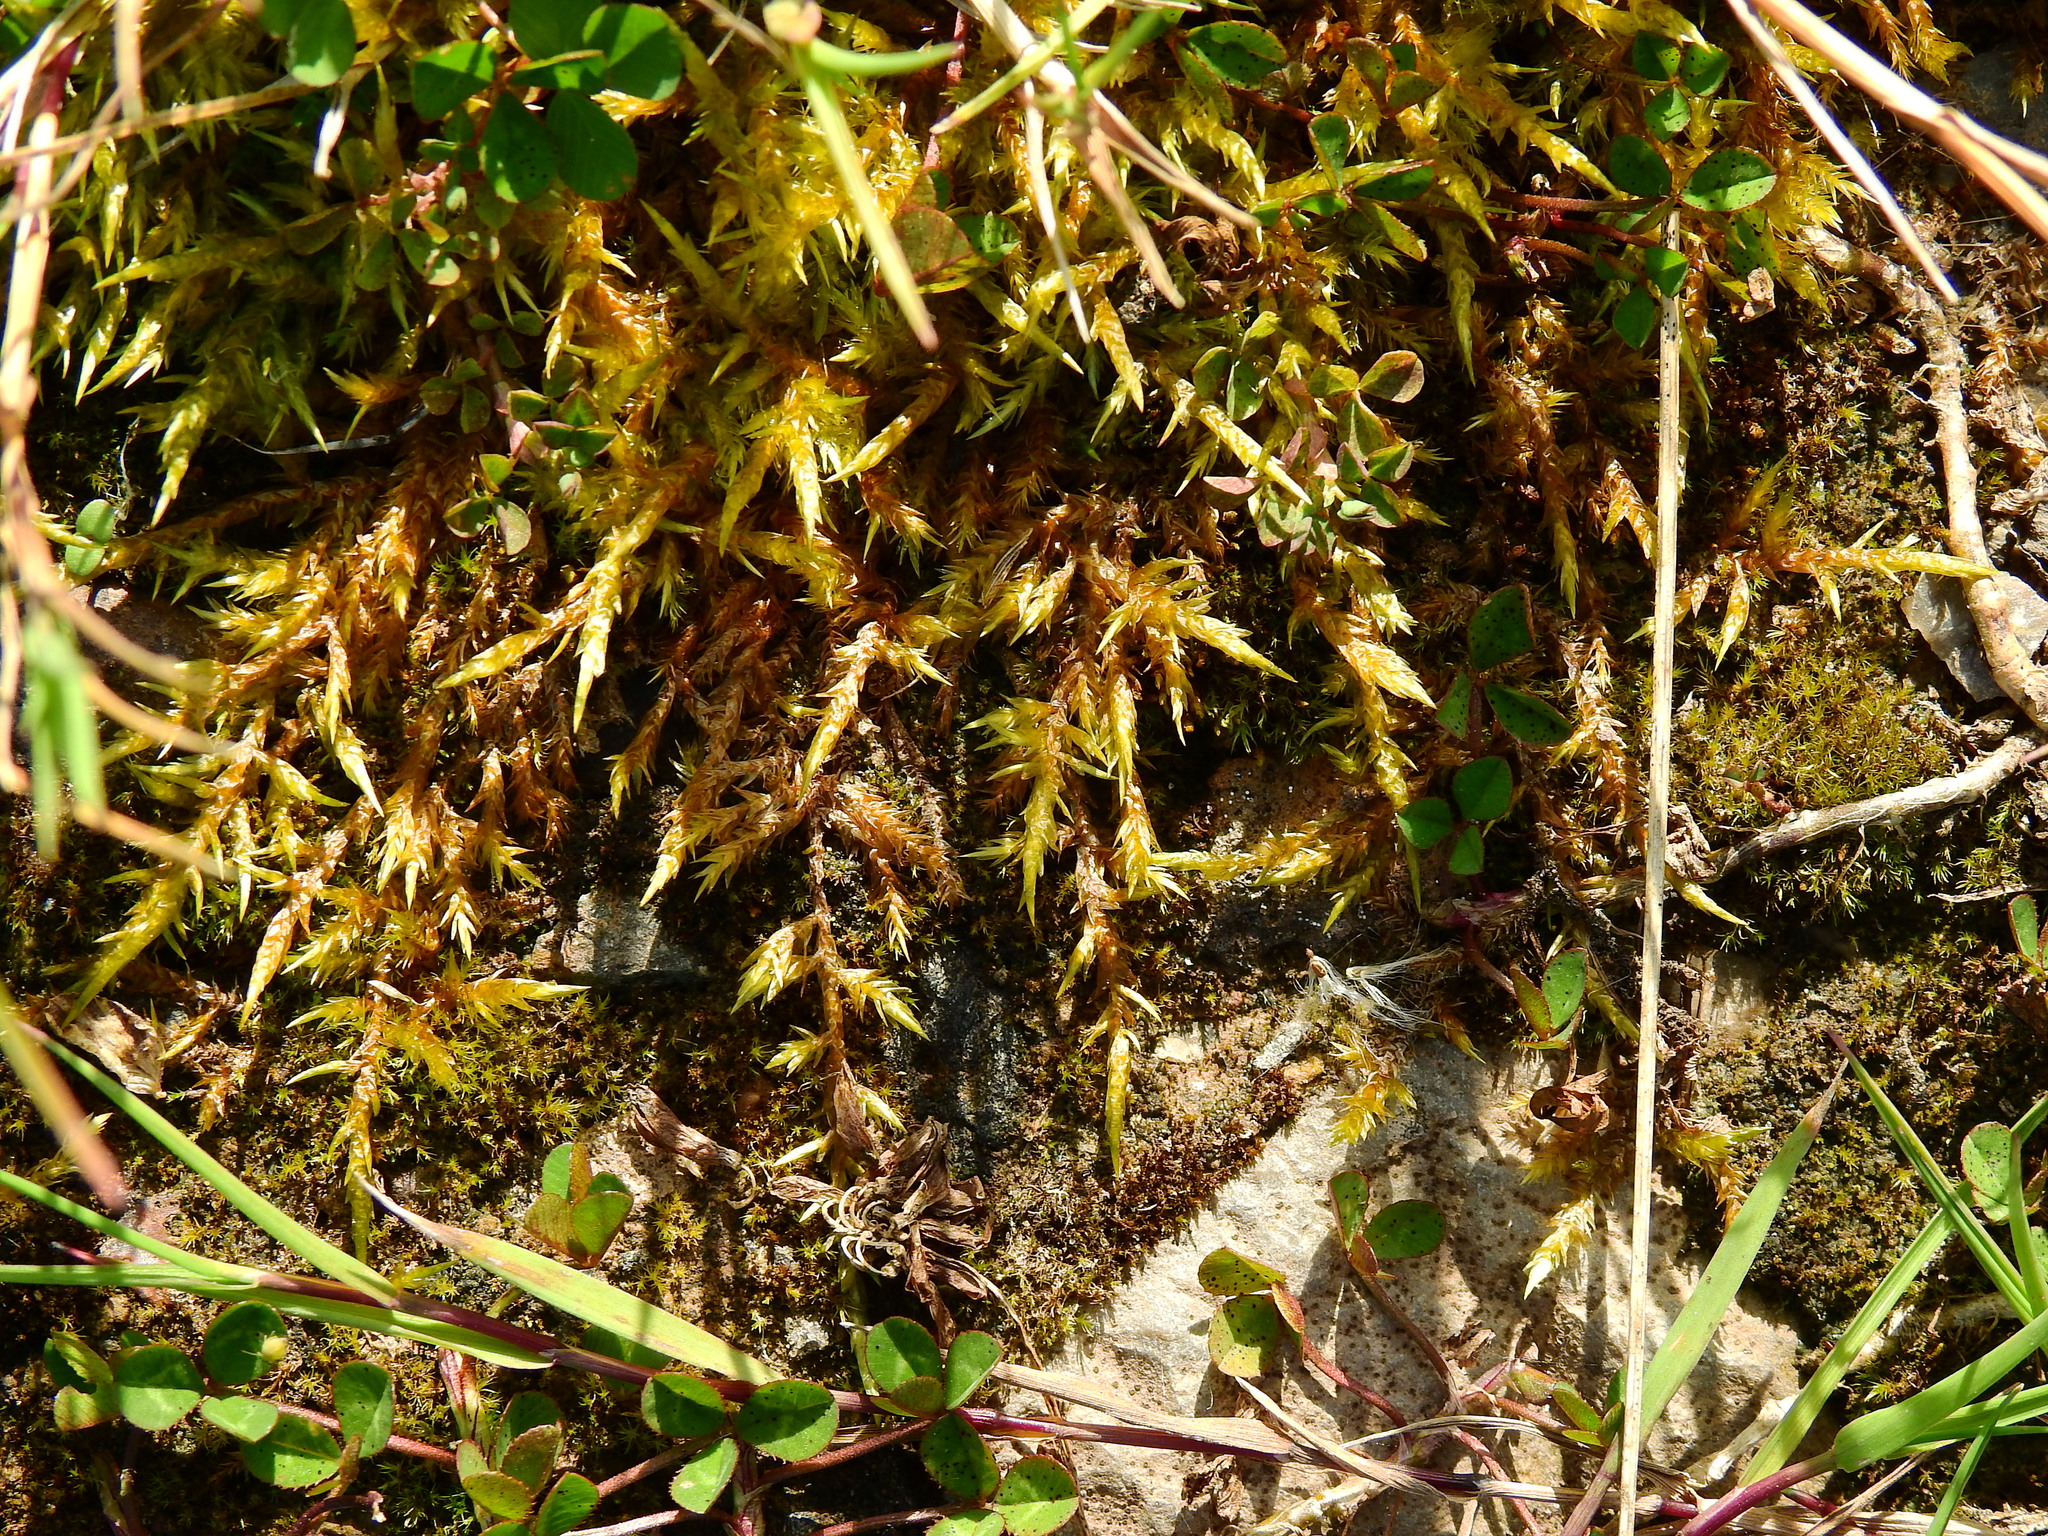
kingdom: Plantae
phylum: Bryophyta
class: Bryopsida
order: Hypnales
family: Pylaisiaceae
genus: Calliergonella
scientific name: Calliergonella cuspidata
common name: Common large wetland moss
